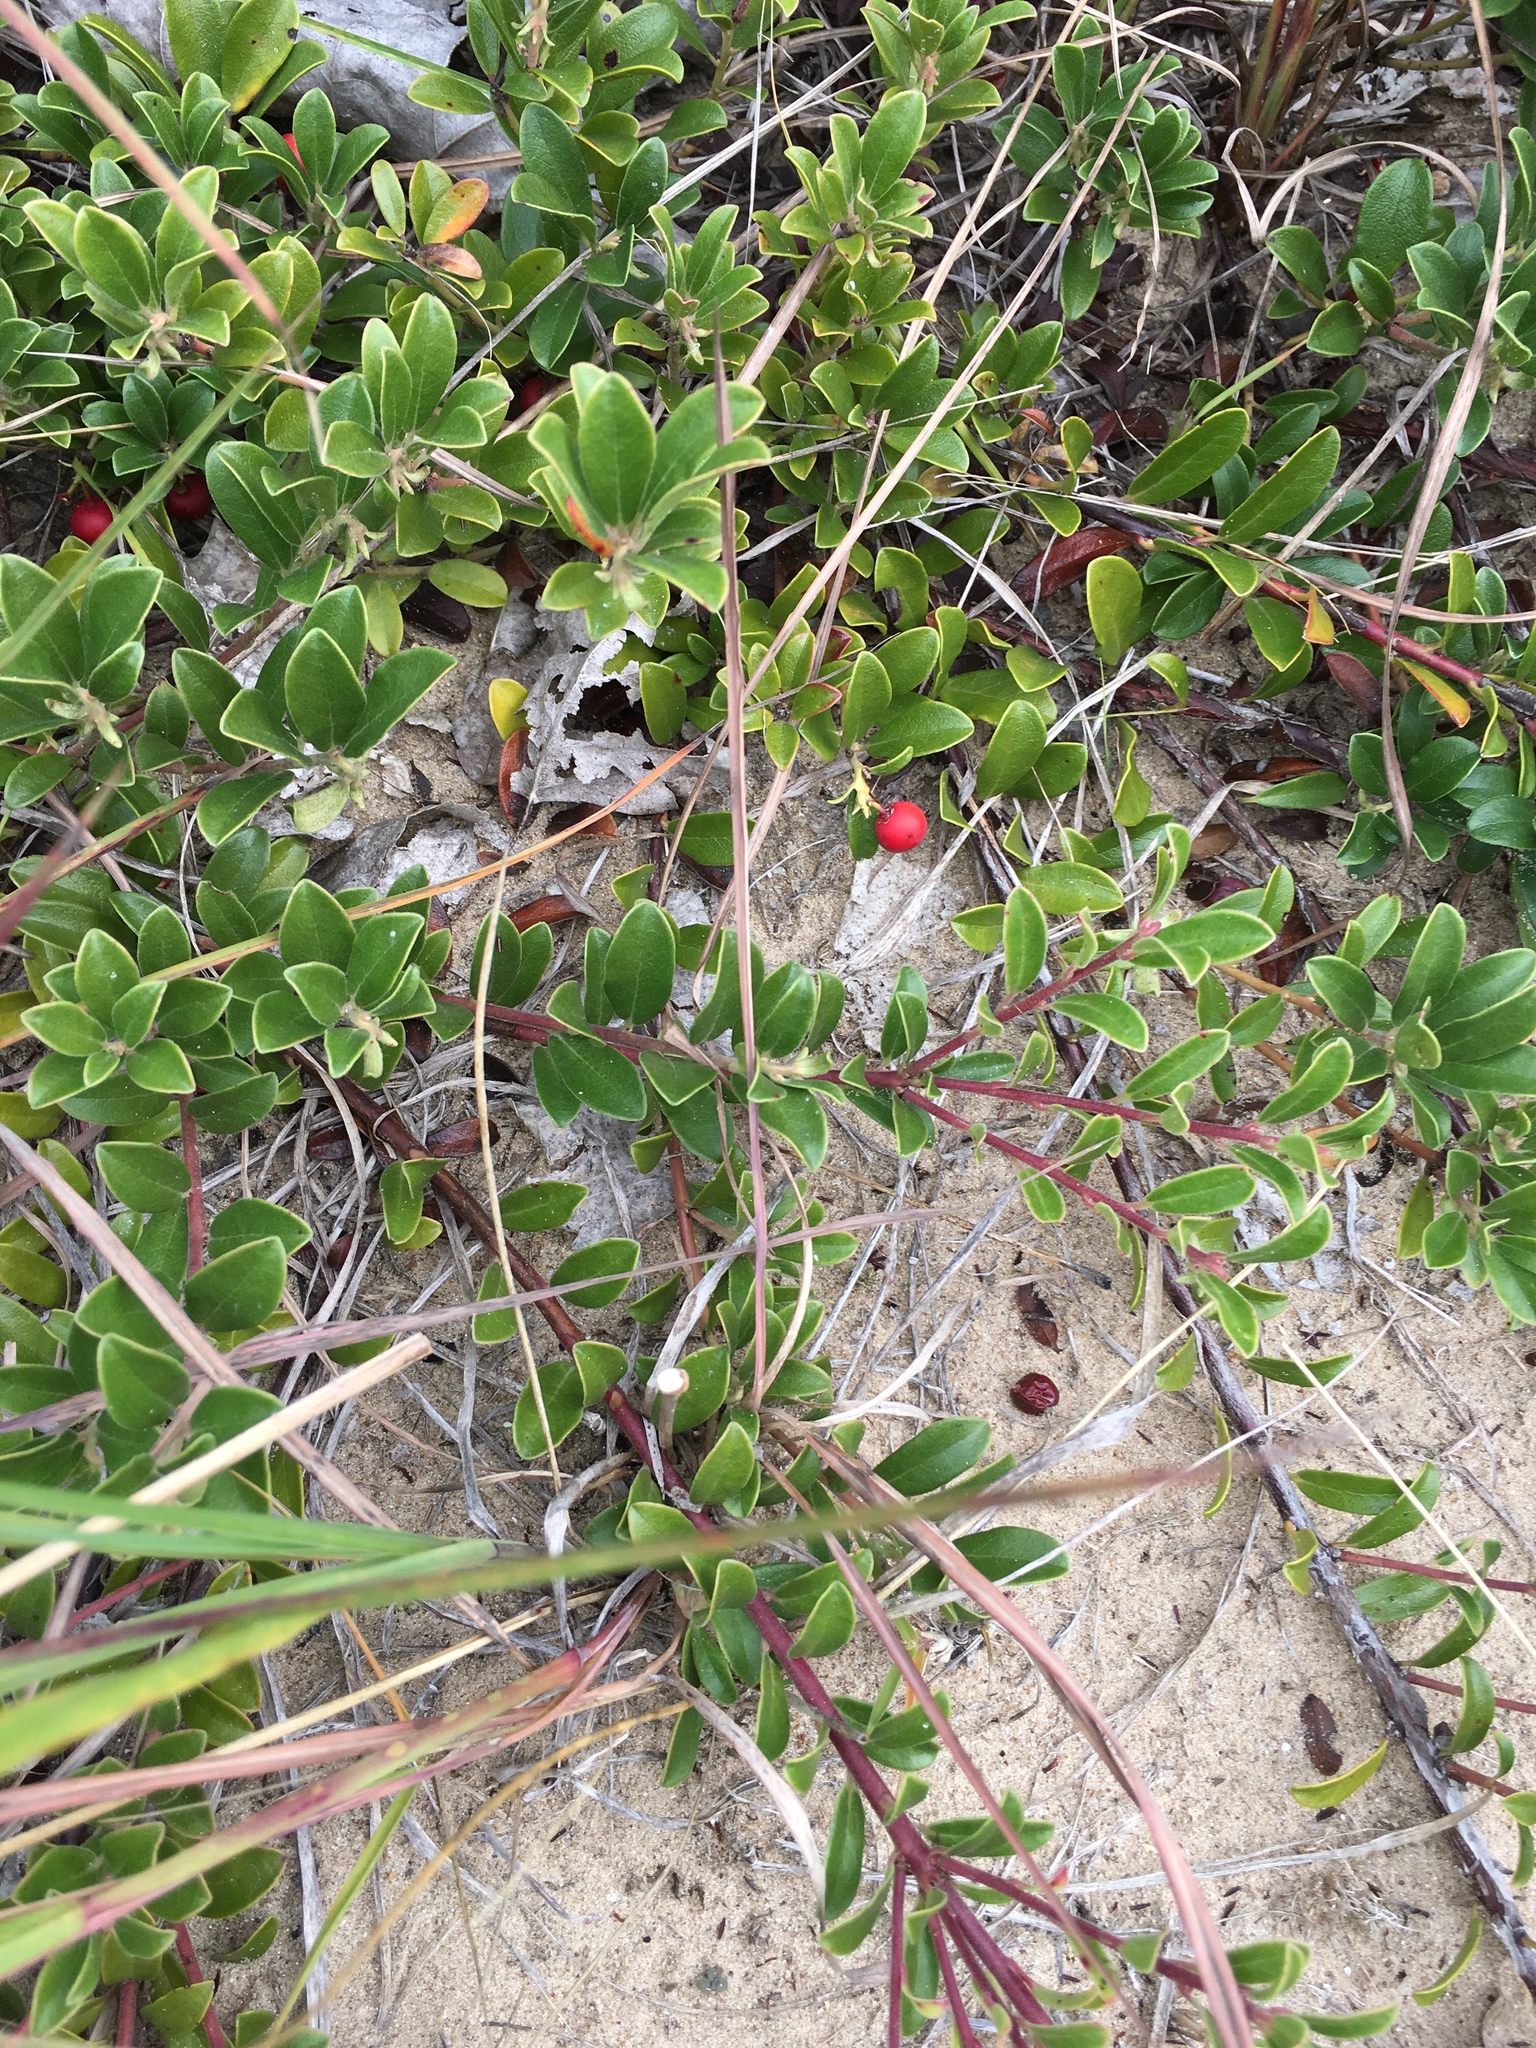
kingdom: Plantae
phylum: Tracheophyta
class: Magnoliopsida
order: Ericales
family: Ericaceae
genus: Arctostaphylos
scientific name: Arctostaphylos uva-ursi
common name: Bearberry
